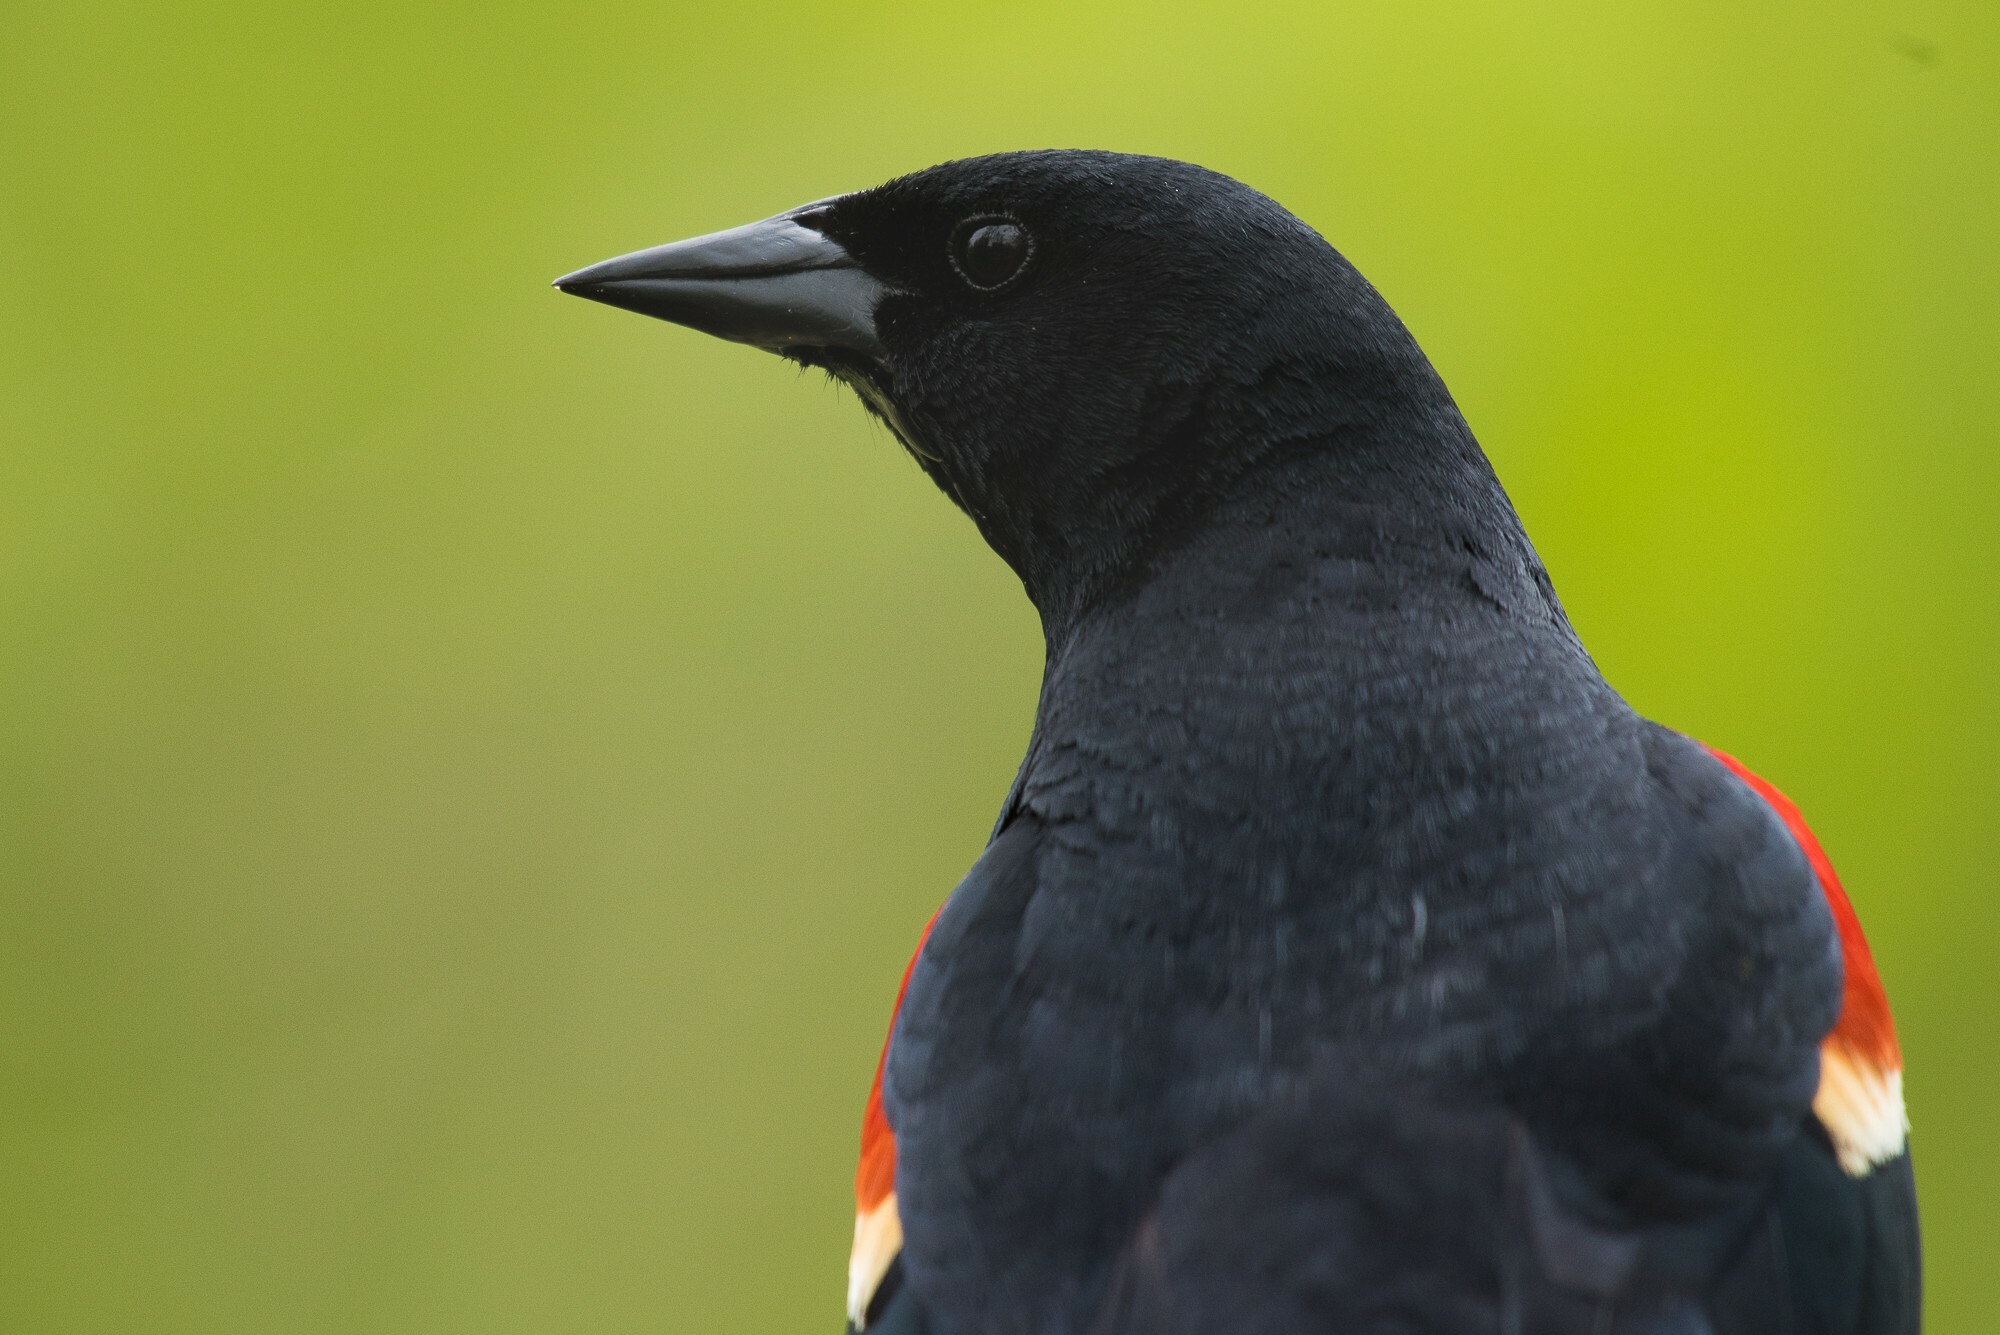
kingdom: Animalia
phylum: Chordata
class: Aves
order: Passeriformes
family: Icteridae
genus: Agelaius
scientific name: Agelaius phoeniceus
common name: Red-winged blackbird
